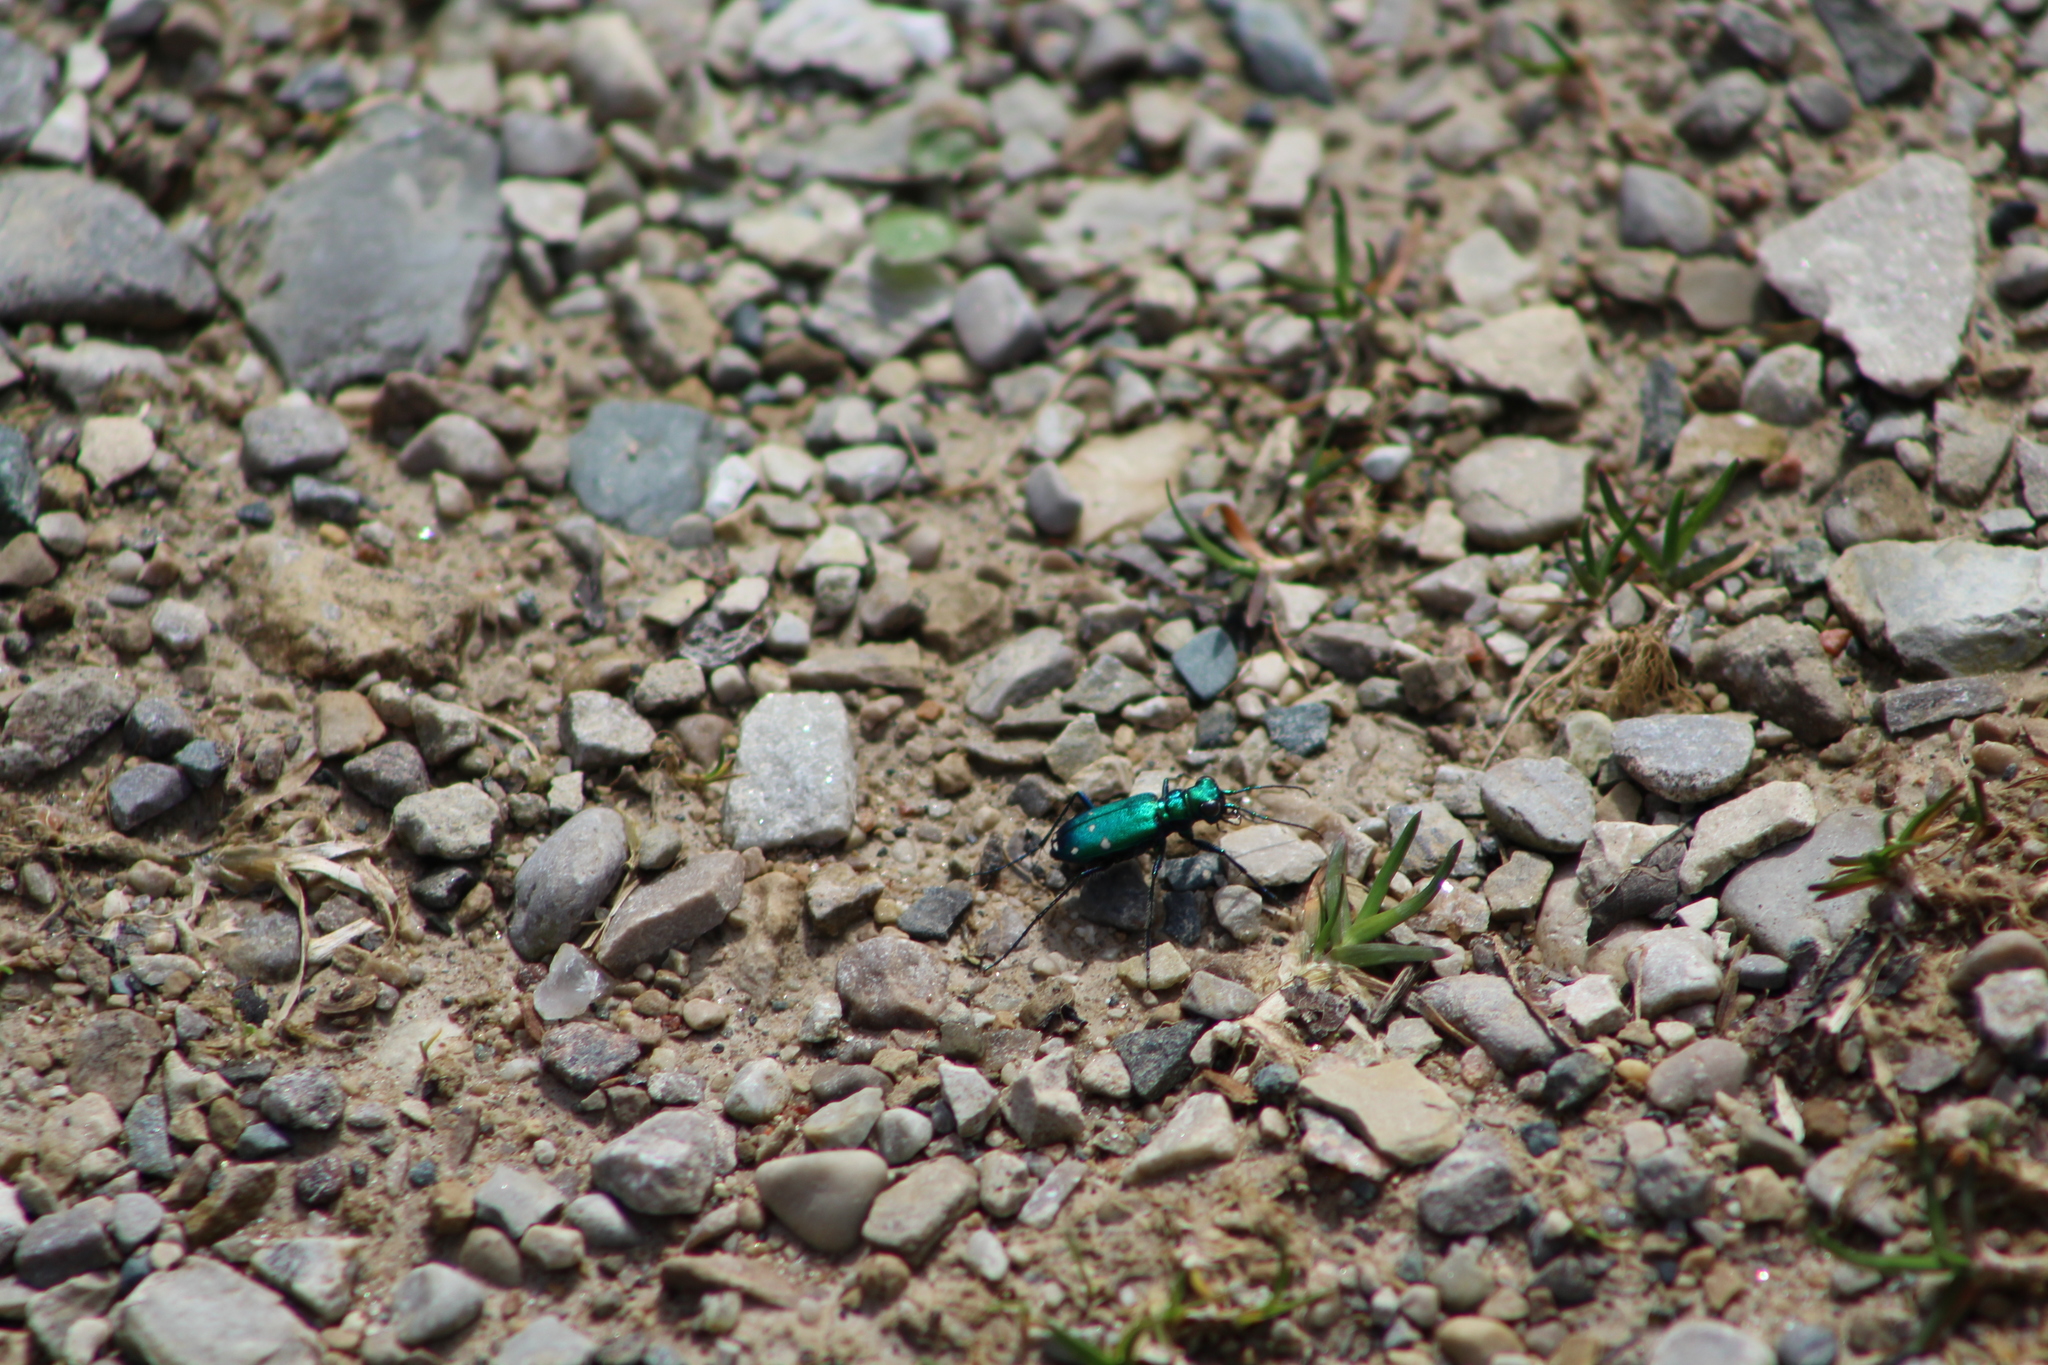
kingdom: Animalia
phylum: Arthropoda
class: Insecta
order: Coleoptera
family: Carabidae
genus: Cicindela
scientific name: Cicindela sexguttata
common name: Six-spotted tiger beetle
